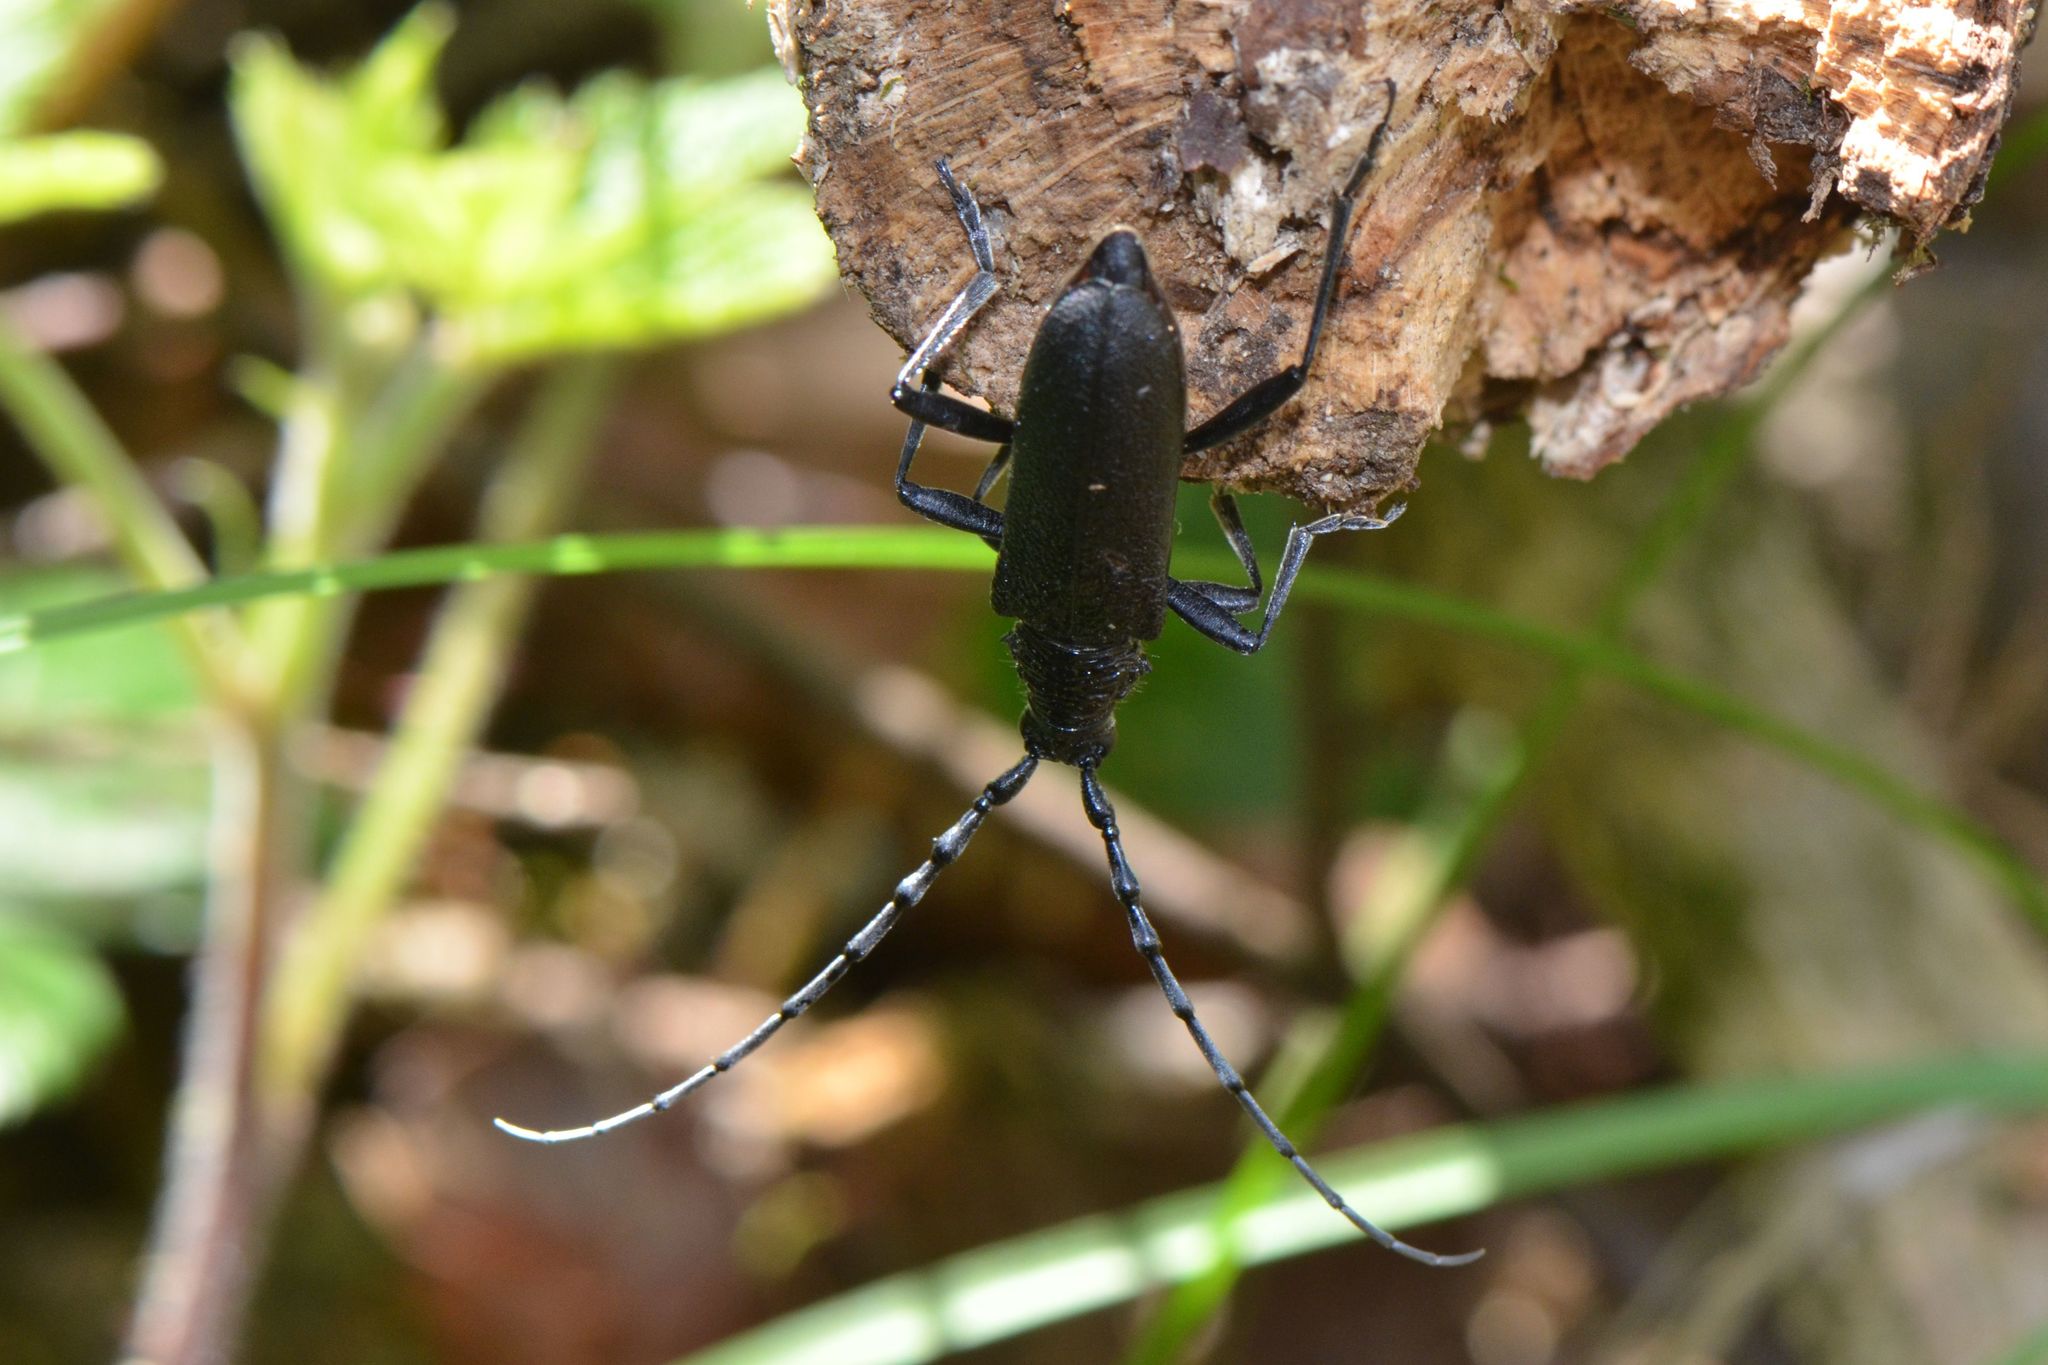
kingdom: Animalia
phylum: Arthropoda
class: Insecta
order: Coleoptera
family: Cerambycidae
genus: Cerambyx
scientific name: Cerambyx scopolii
